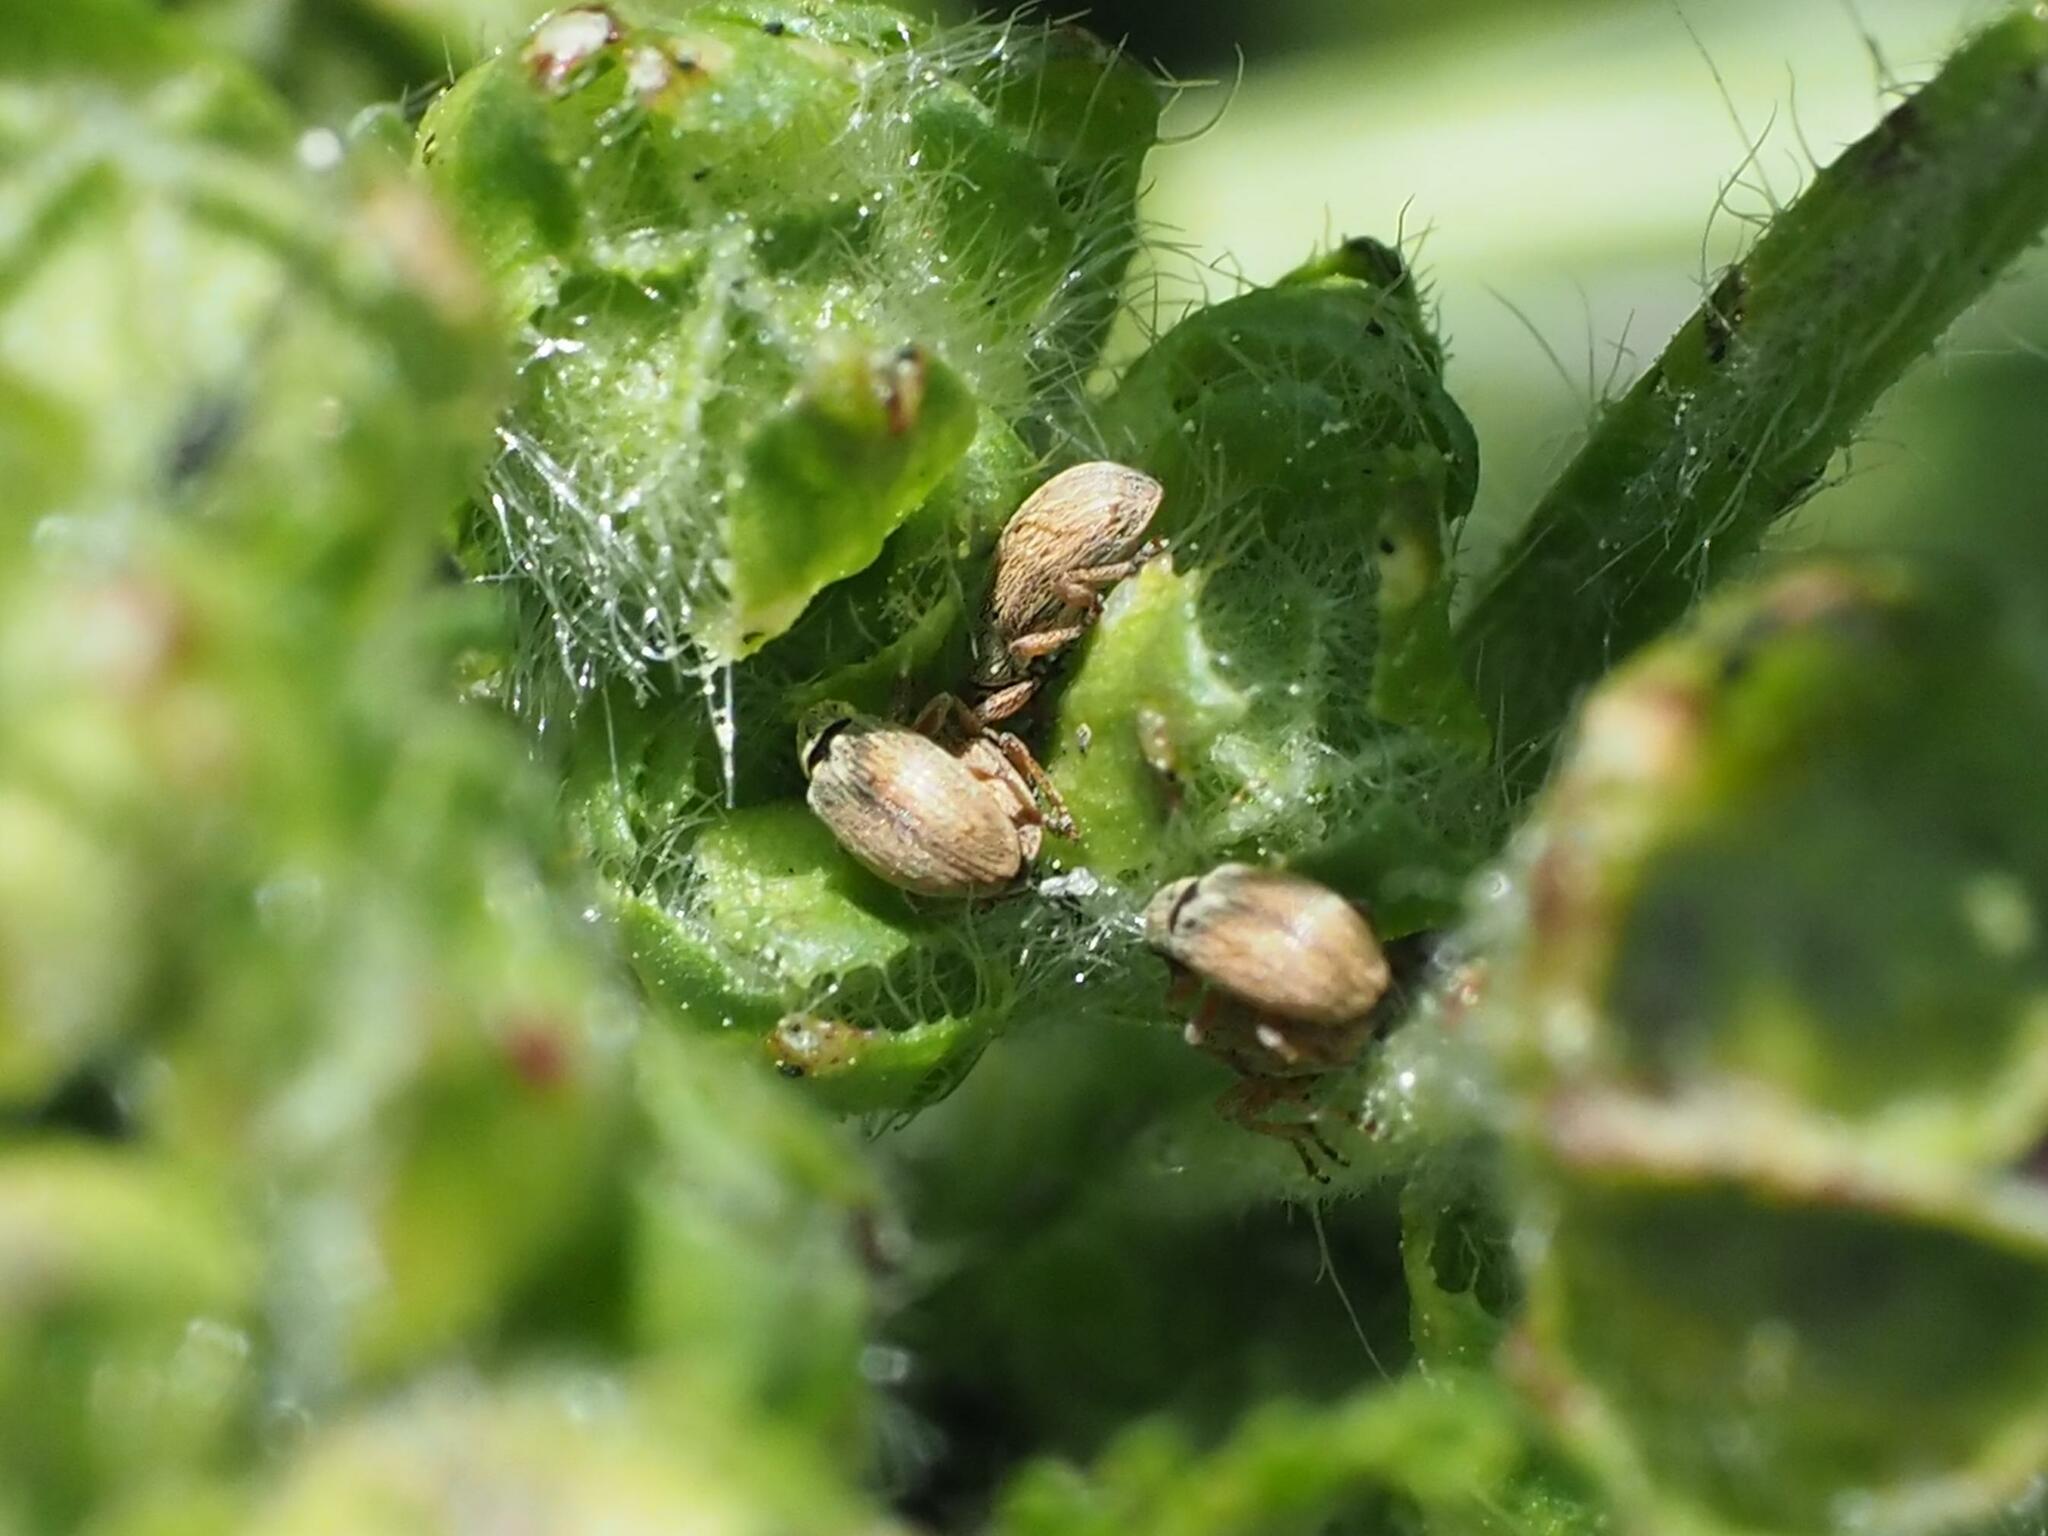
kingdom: Animalia
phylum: Arthropoda
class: Insecta
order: Coleoptera
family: Apionidae
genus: Malvapion
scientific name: Malvapion malvae
